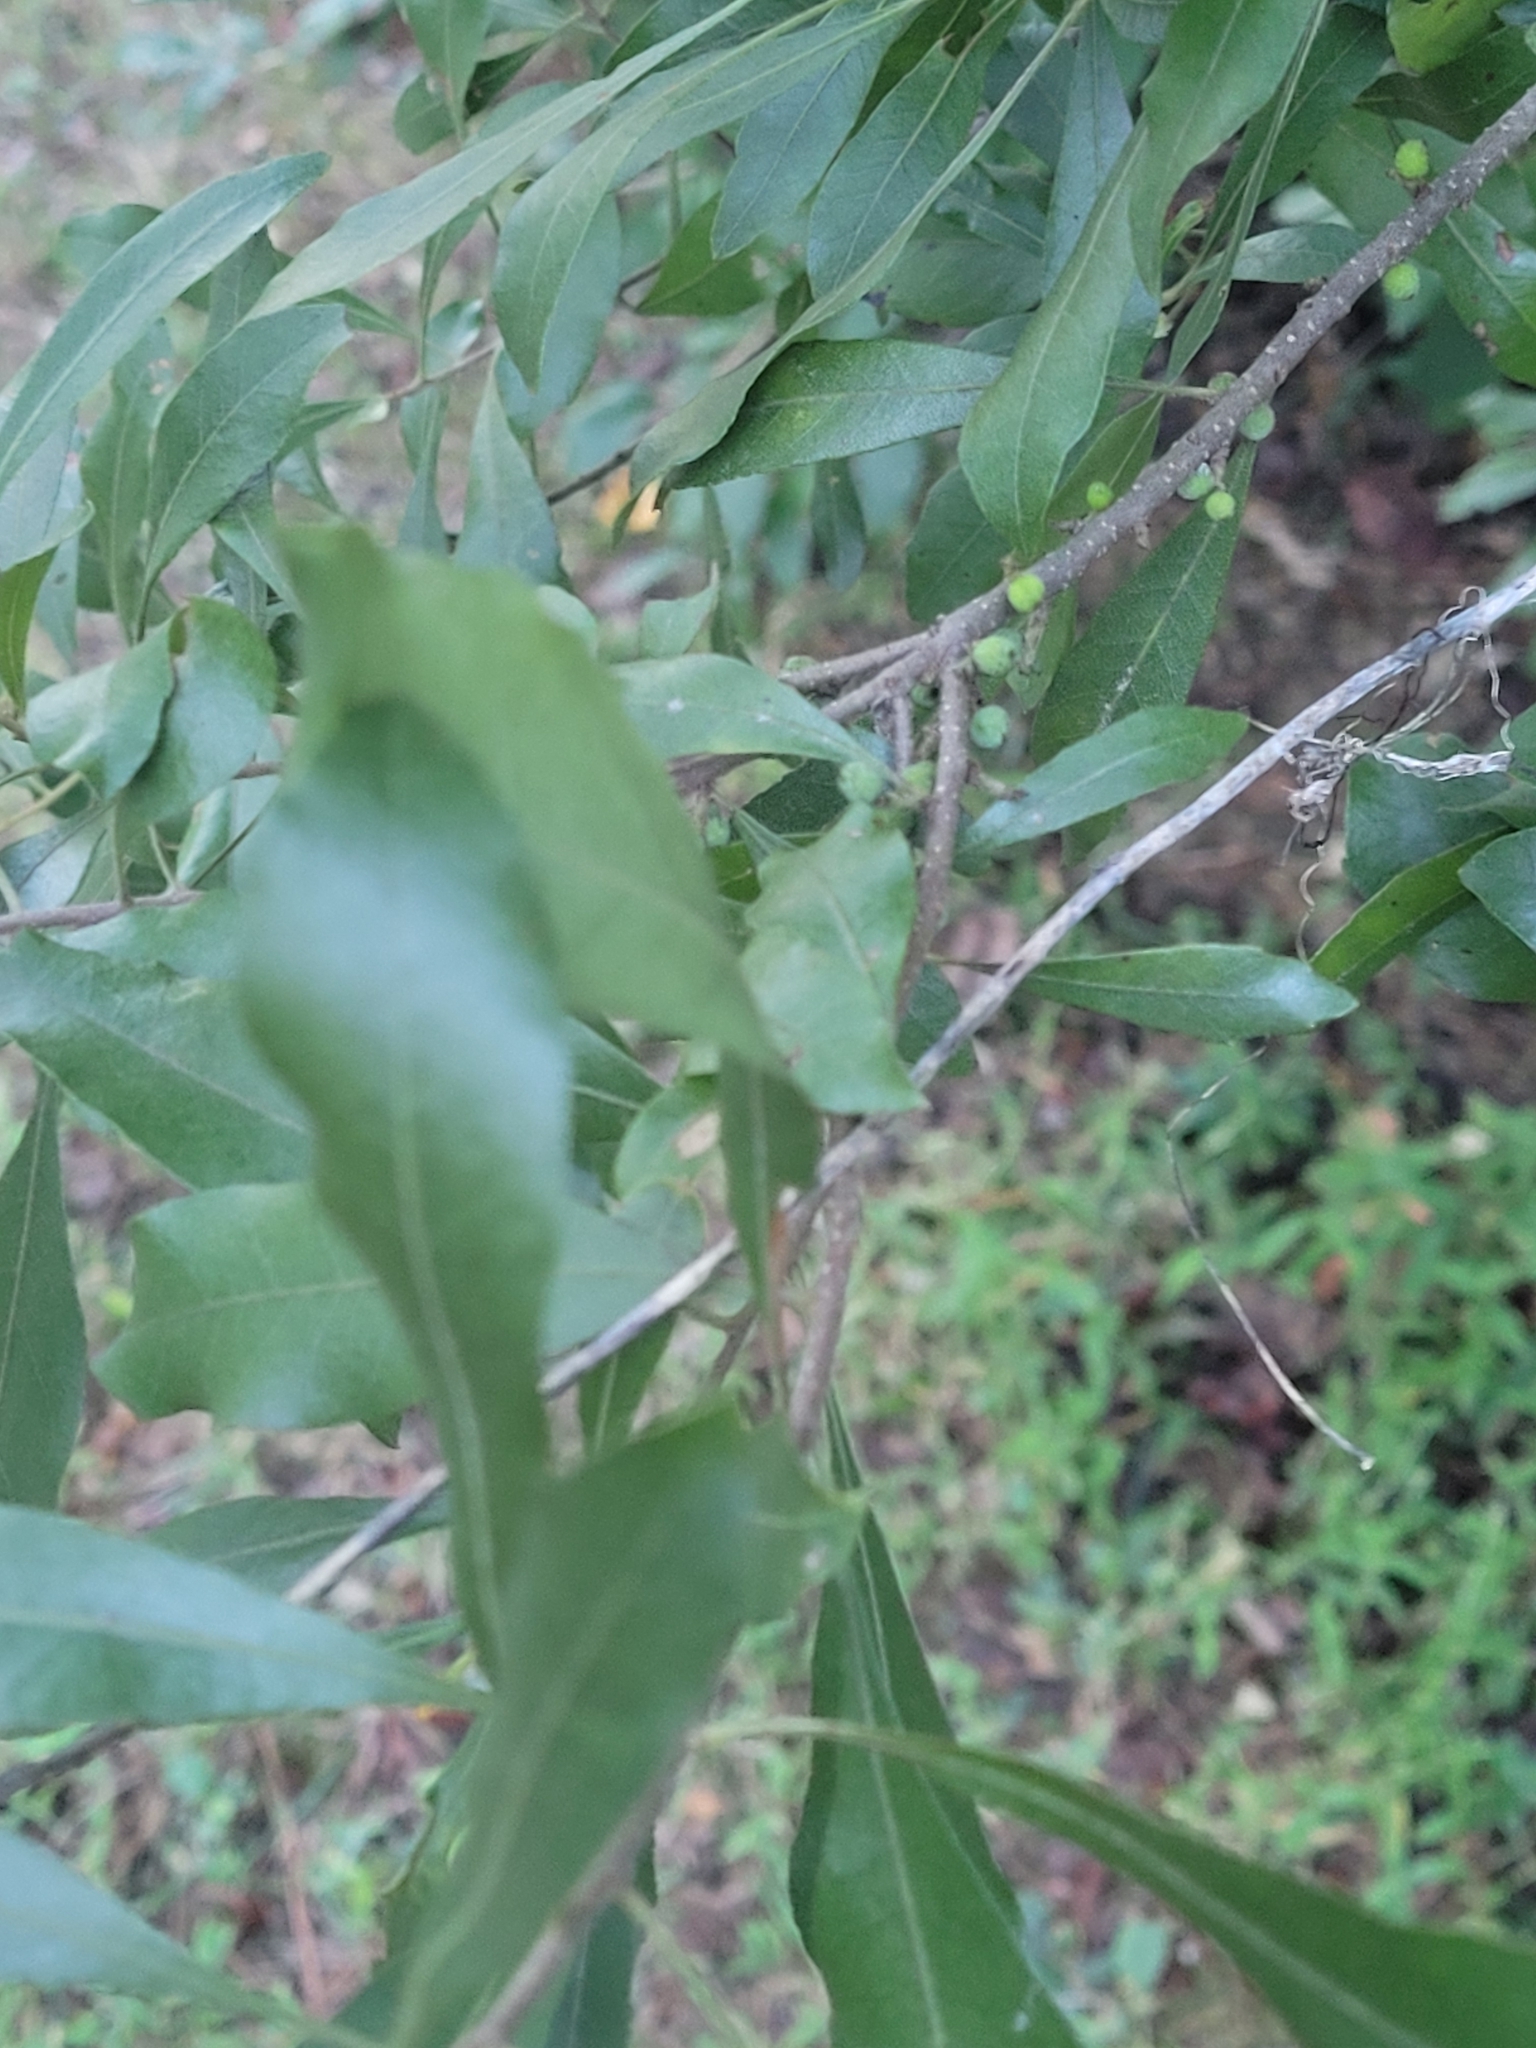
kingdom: Plantae
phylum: Tracheophyta
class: Magnoliopsida
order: Fagales
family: Myricaceae
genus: Morella
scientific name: Morella cerifera
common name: Wax myrtle
